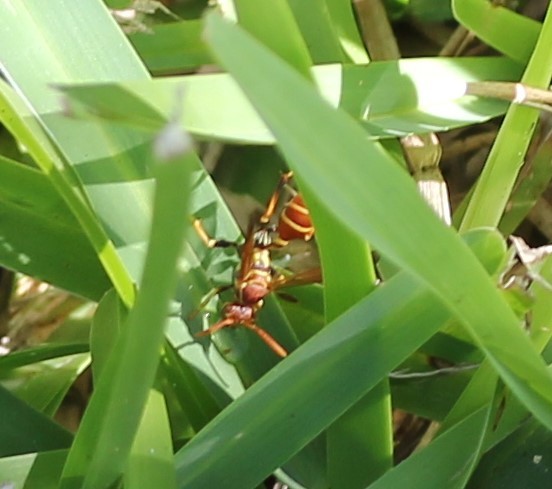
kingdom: Animalia
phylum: Arthropoda
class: Insecta
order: Hymenoptera
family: Vespidae
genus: Mischocyttarus
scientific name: Mischocyttarus mexicanus
